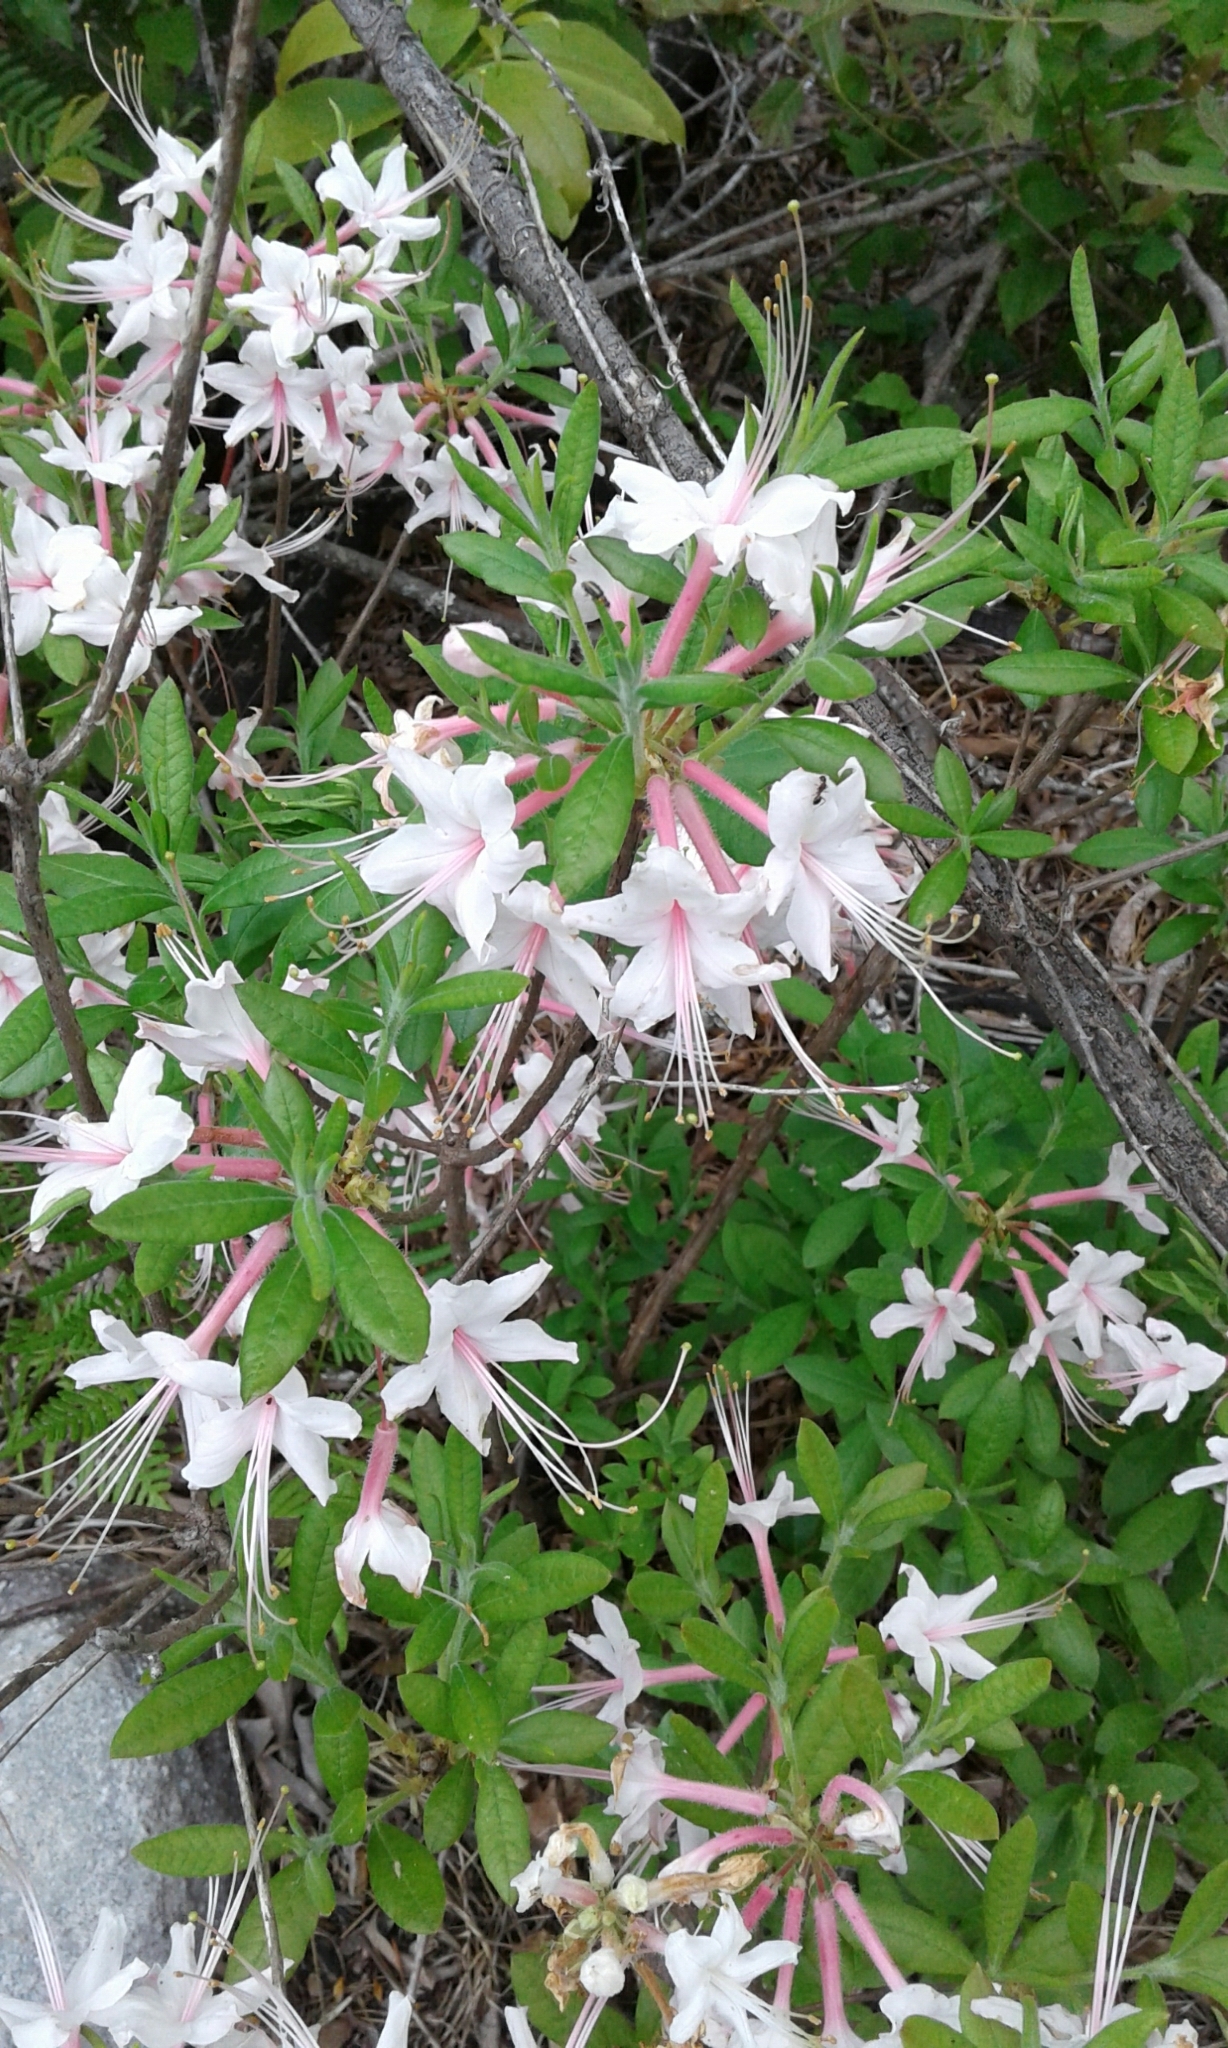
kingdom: Plantae
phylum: Tracheophyta
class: Magnoliopsida
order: Ericales
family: Ericaceae
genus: Rhododendron
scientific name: Rhododendron canescens
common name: Mountain azalea
